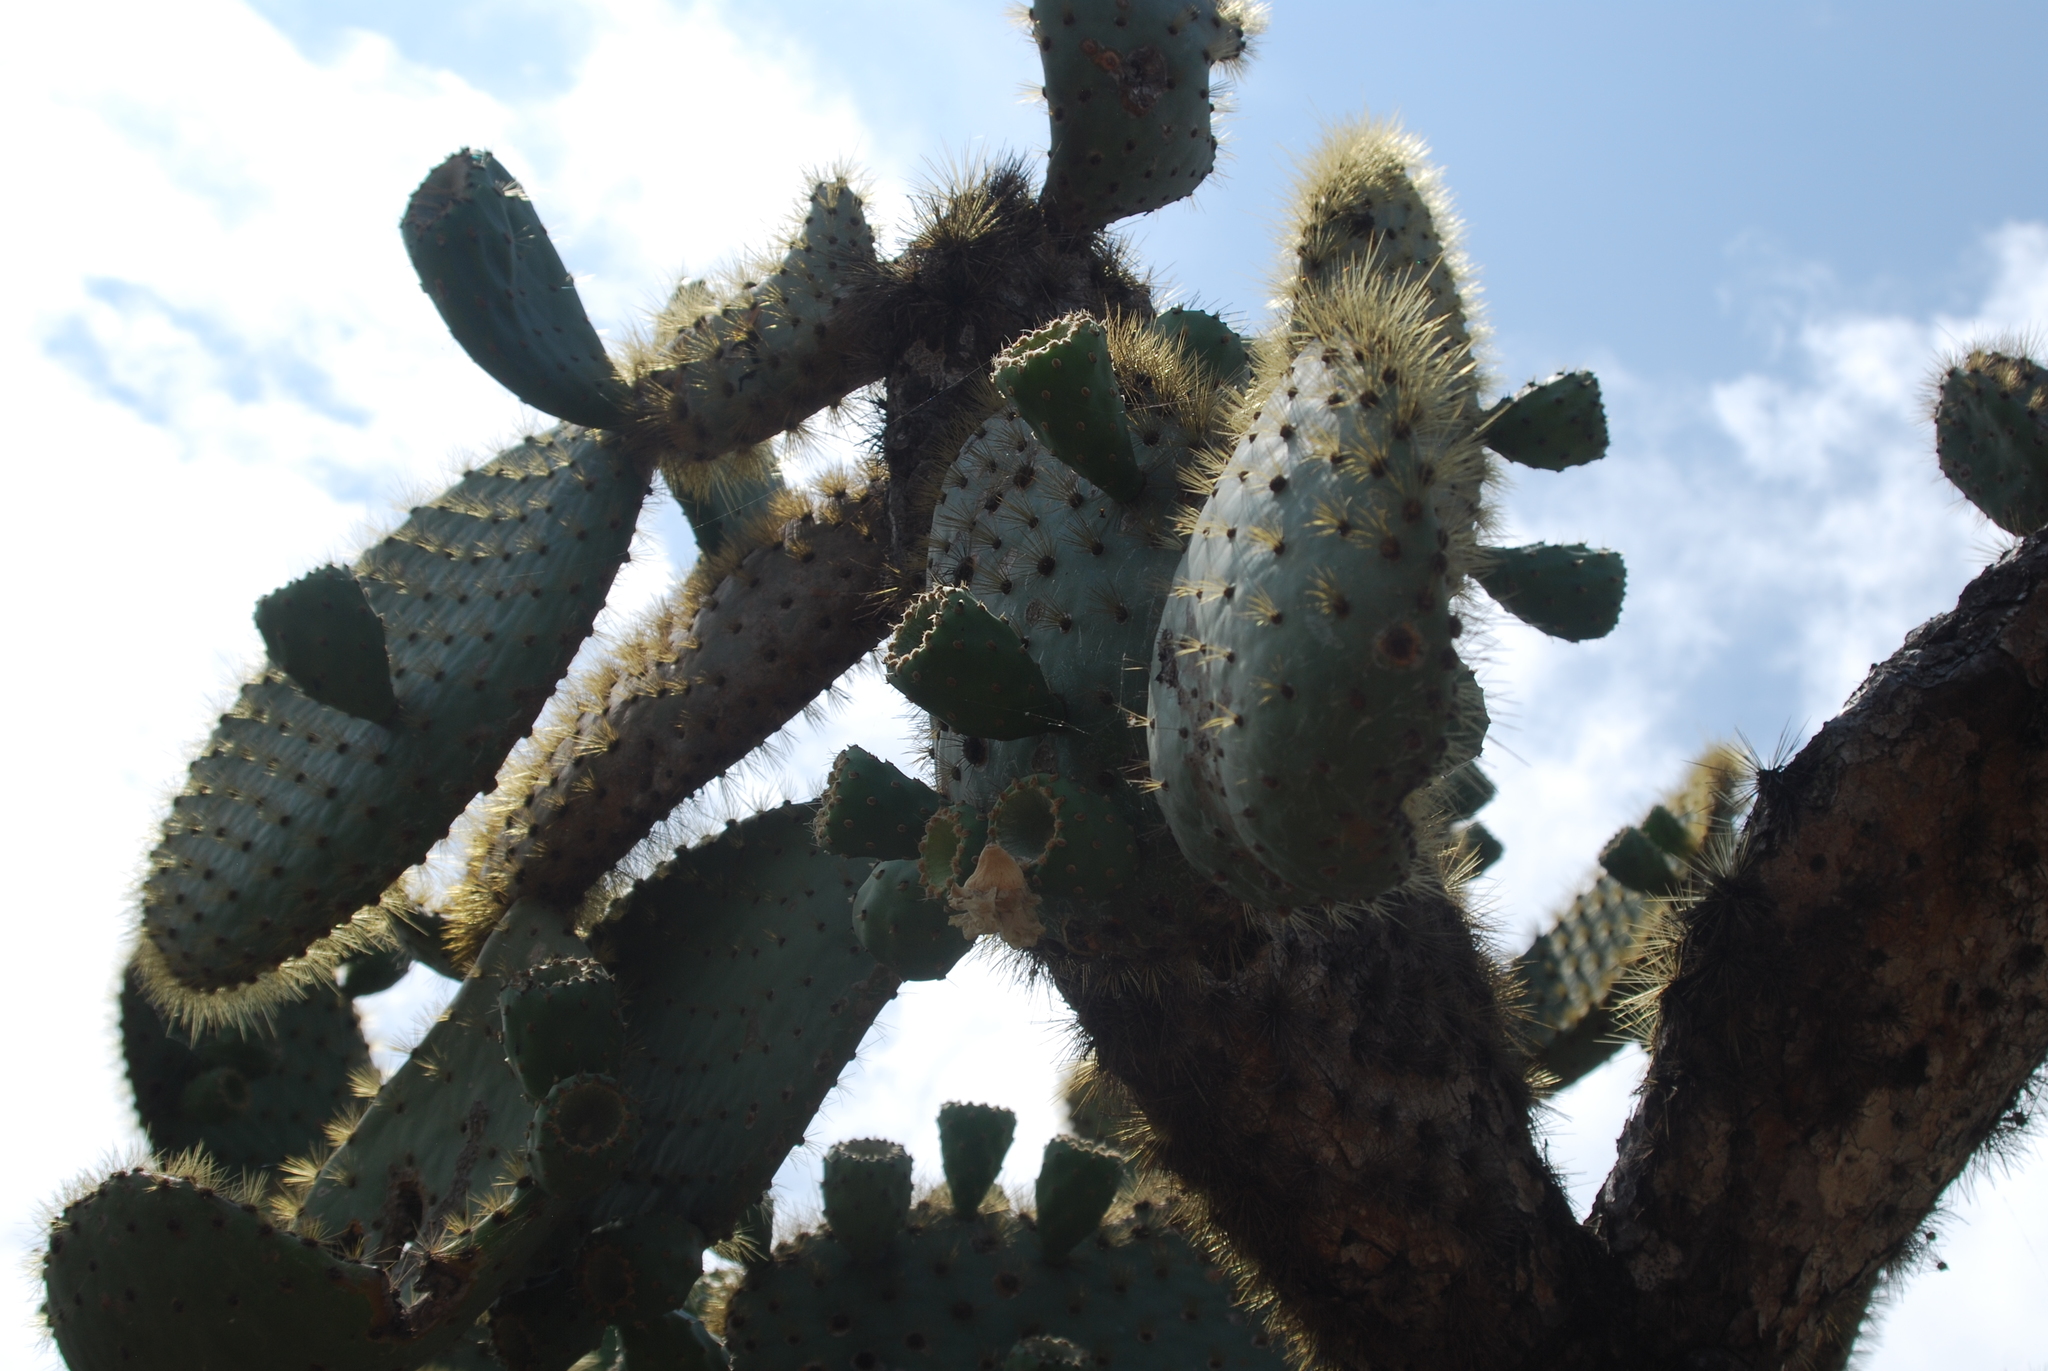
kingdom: Plantae
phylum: Tracheophyta
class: Magnoliopsida
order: Caryophyllales
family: Cactaceae
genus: Opuntia
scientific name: Opuntia galapageia
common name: Galápagos prickly pear
